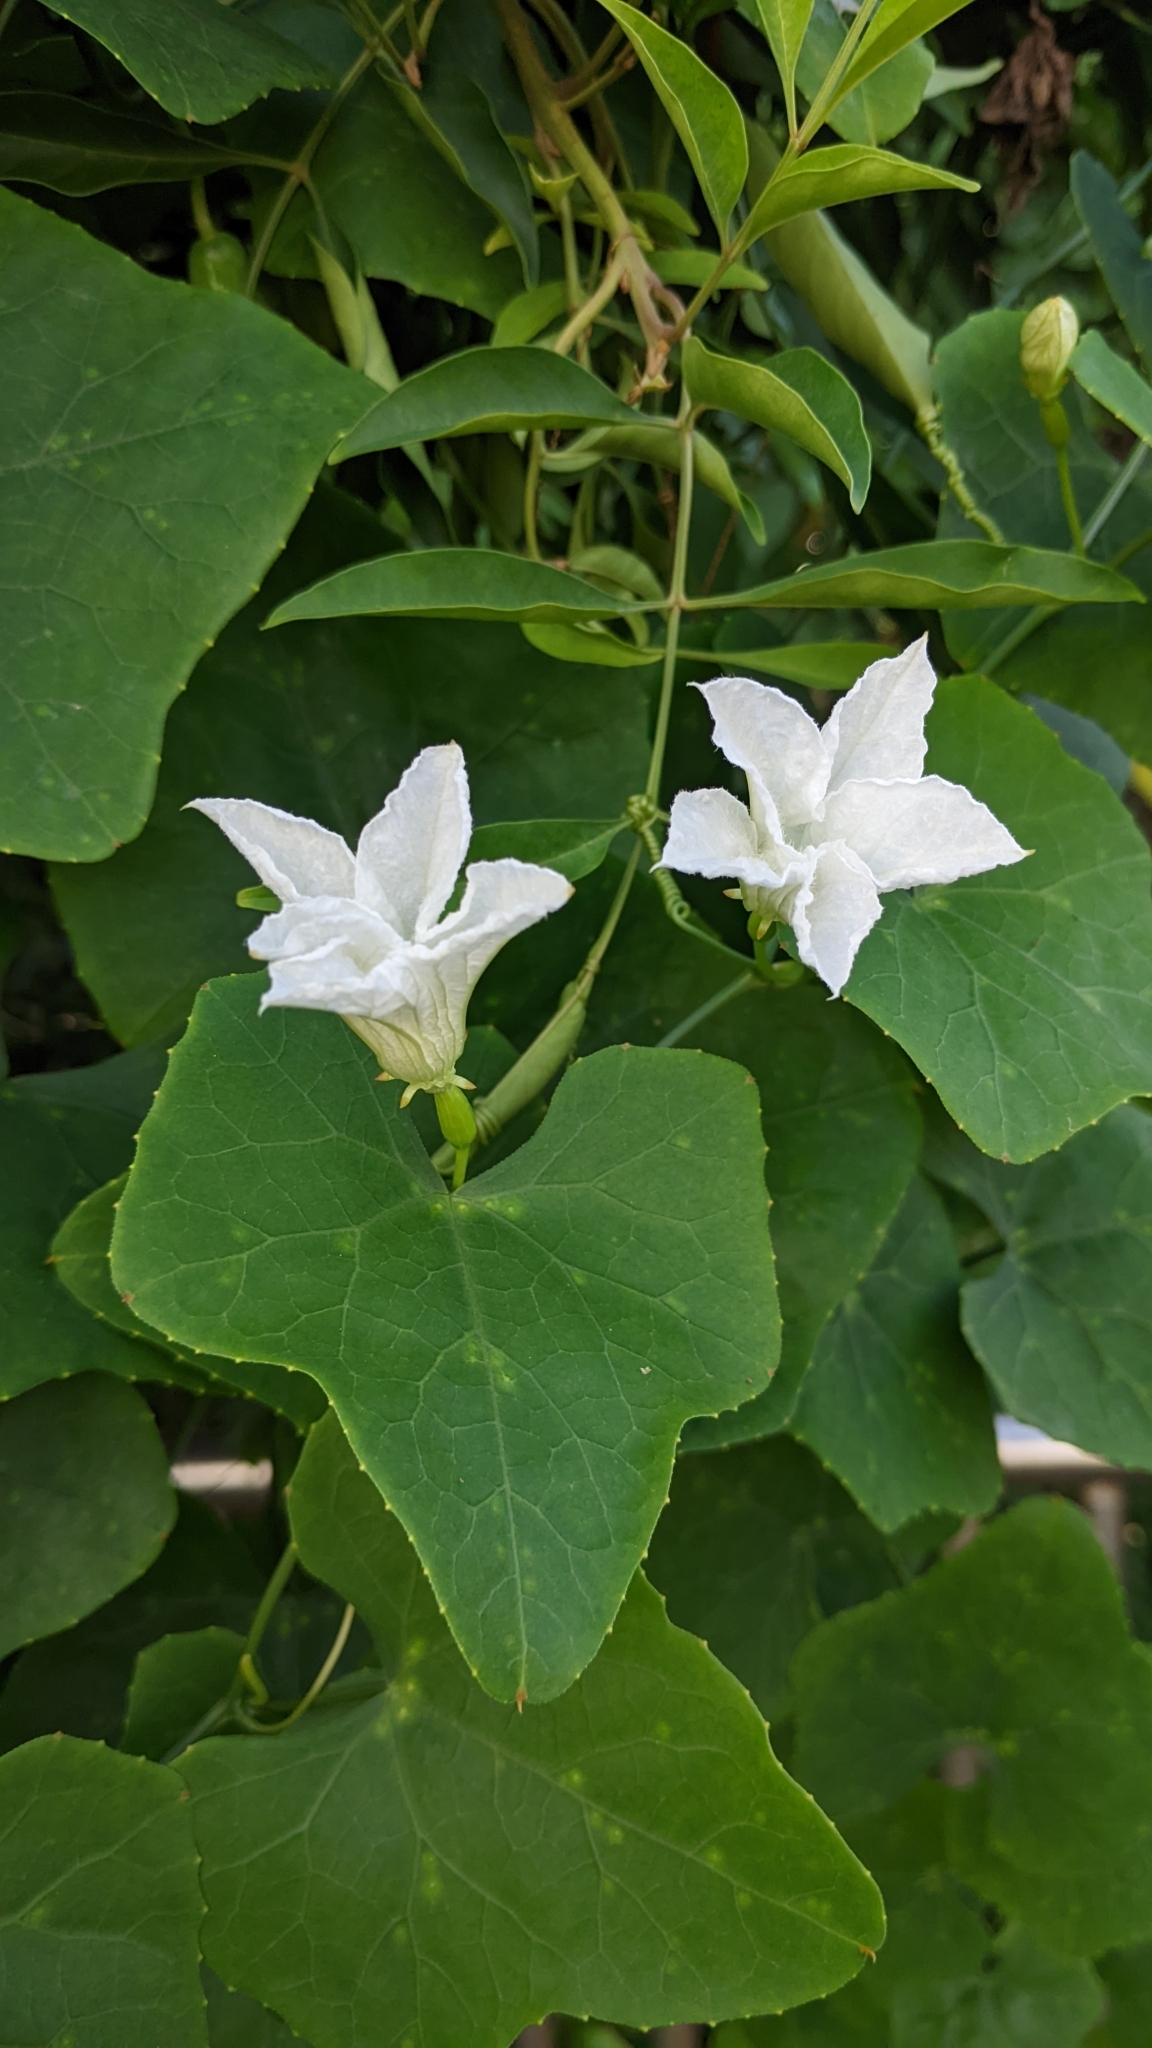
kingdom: Plantae
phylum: Tracheophyta
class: Magnoliopsida
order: Cucurbitales
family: Cucurbitaceae
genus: Coccinia
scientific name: Coccinia grandis
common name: Ivy gourd
